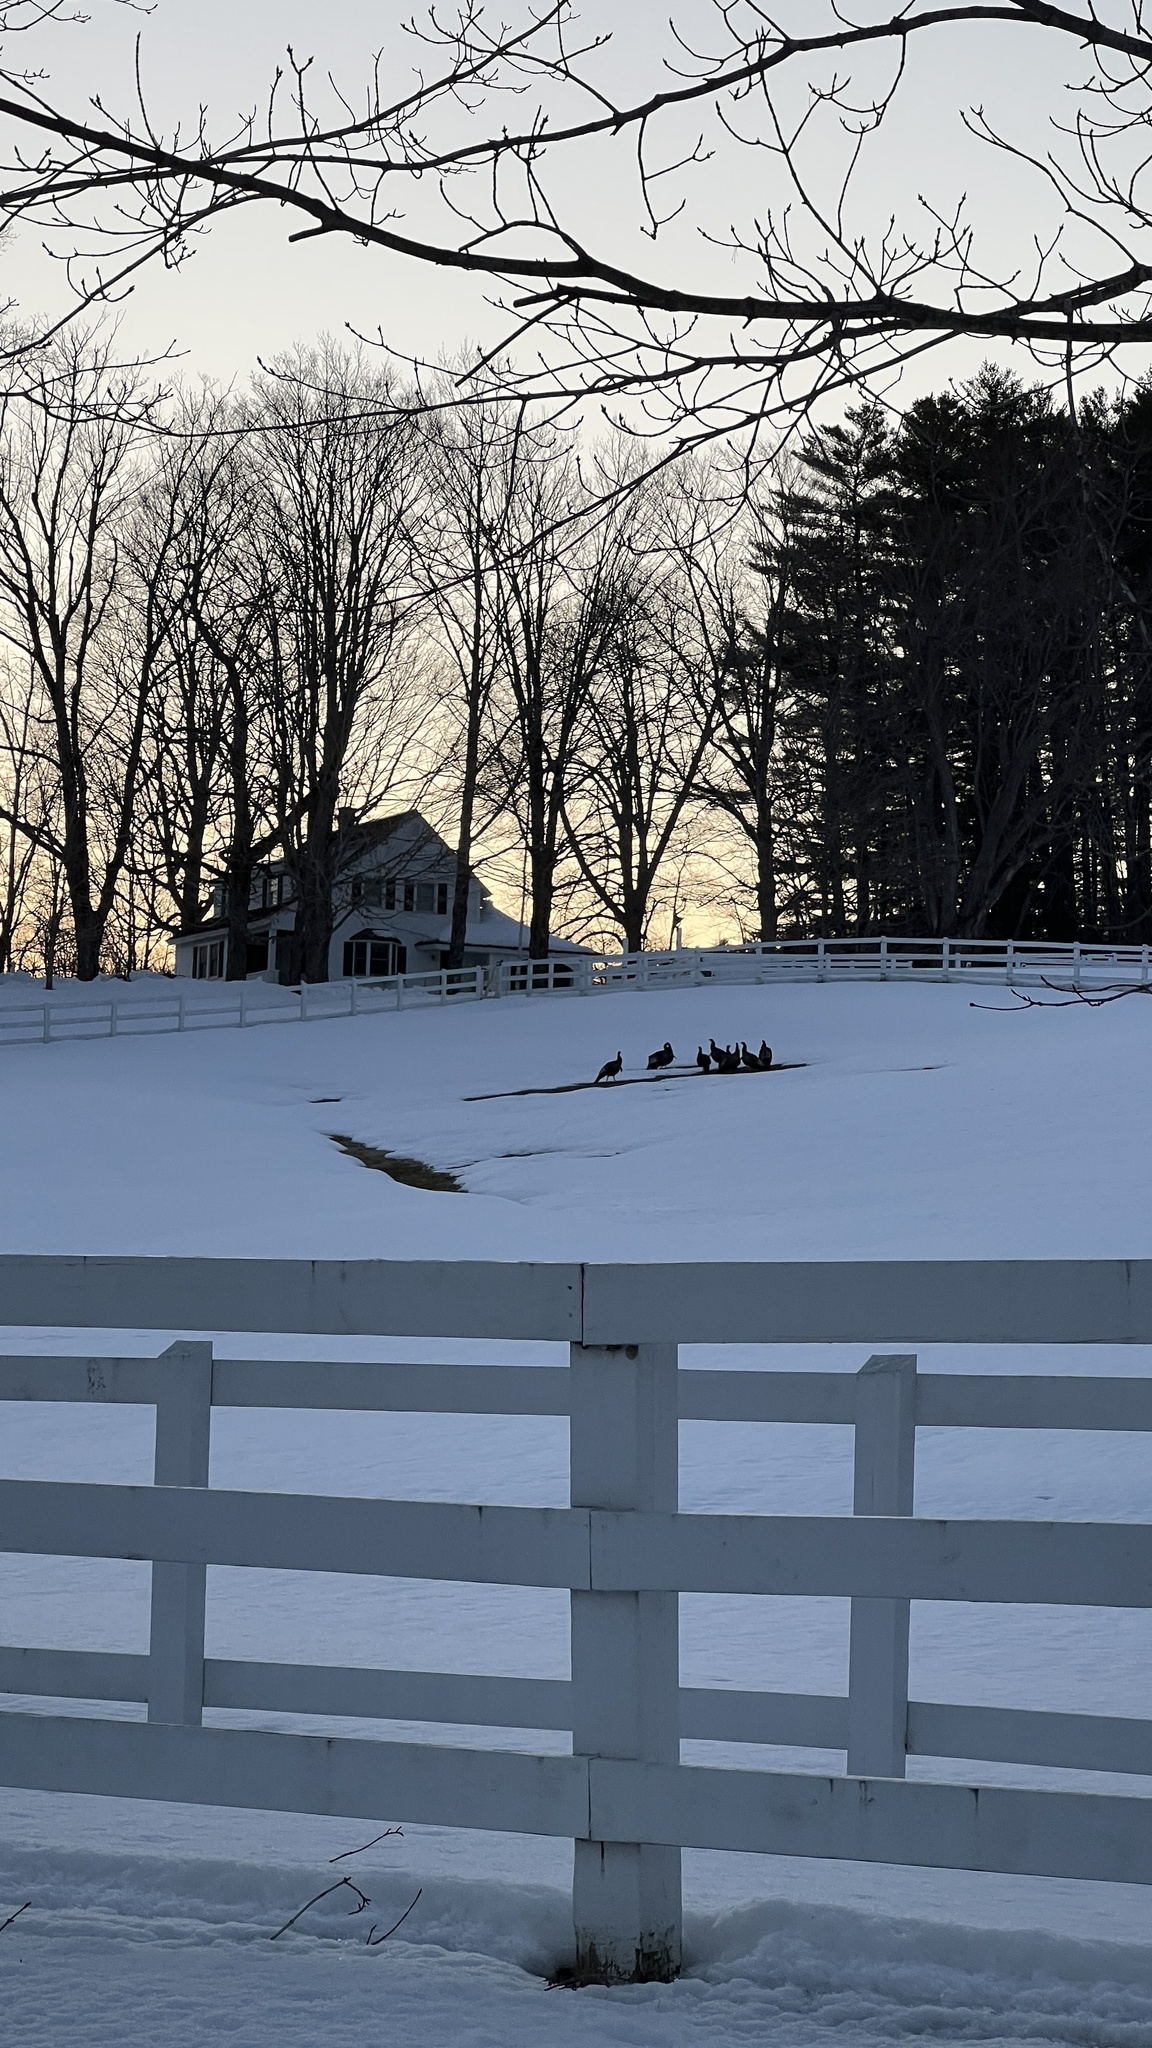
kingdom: Animalia
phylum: Chordata
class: Aves
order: Galliformes
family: Phasianidae
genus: Meleagris
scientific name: Meleagris gallopavo
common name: Wild turkey
